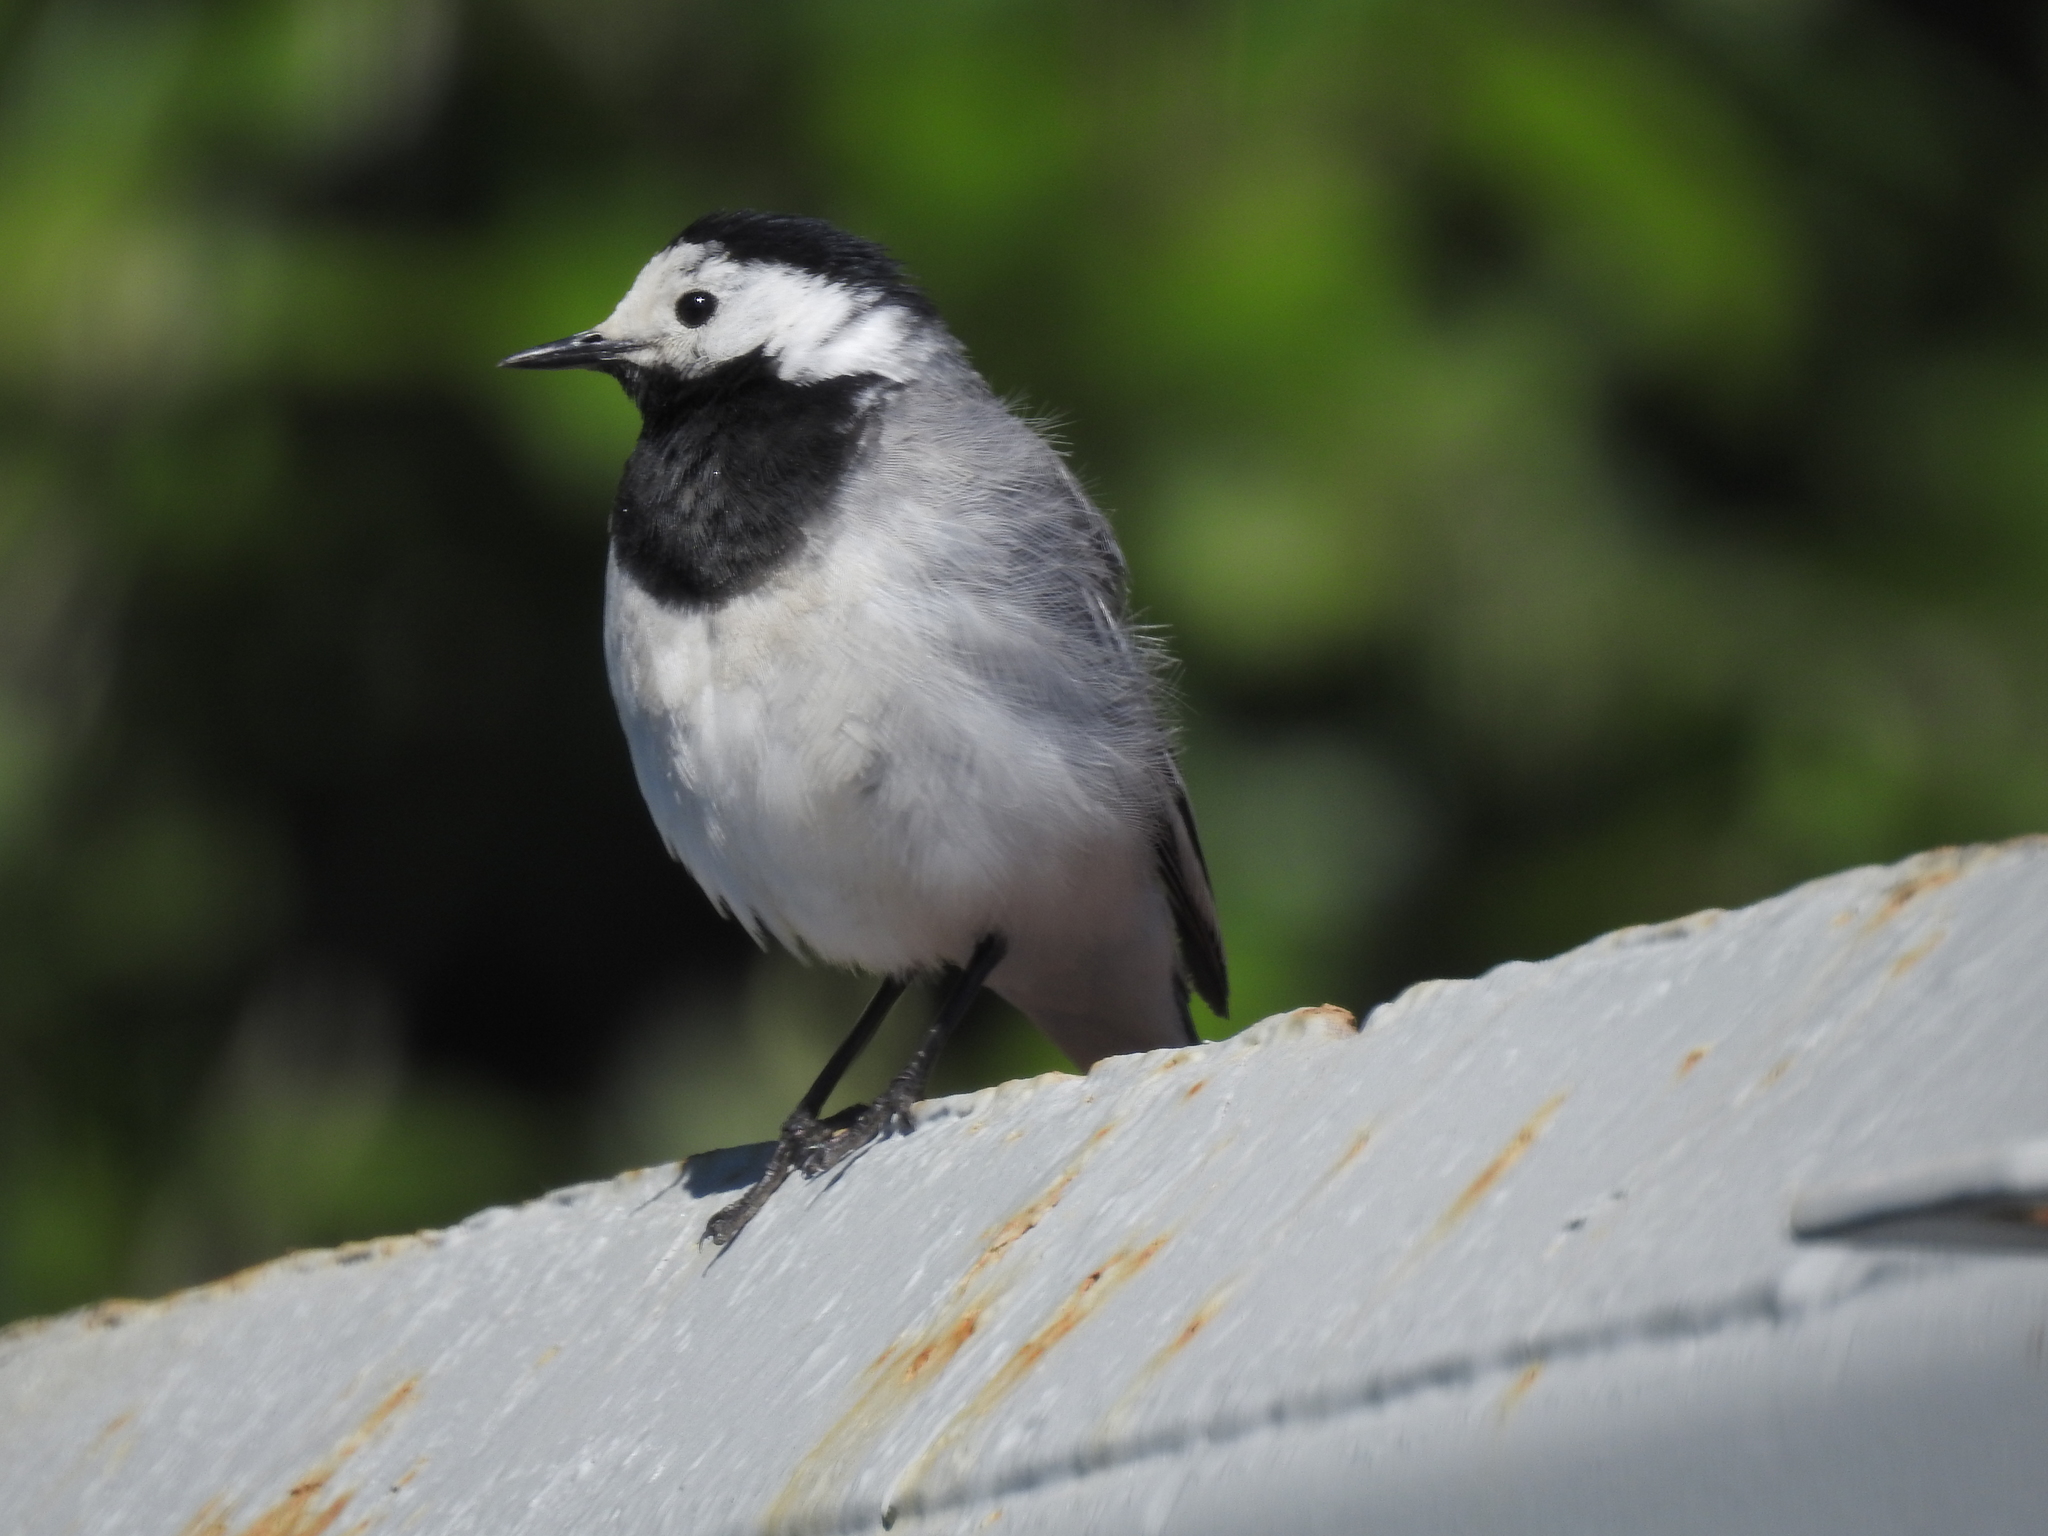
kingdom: Animalia
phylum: Chordata
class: Aves
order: Passeriformes
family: Motacillidae
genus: Motacilla
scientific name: Motacilla alba
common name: White wagtail
